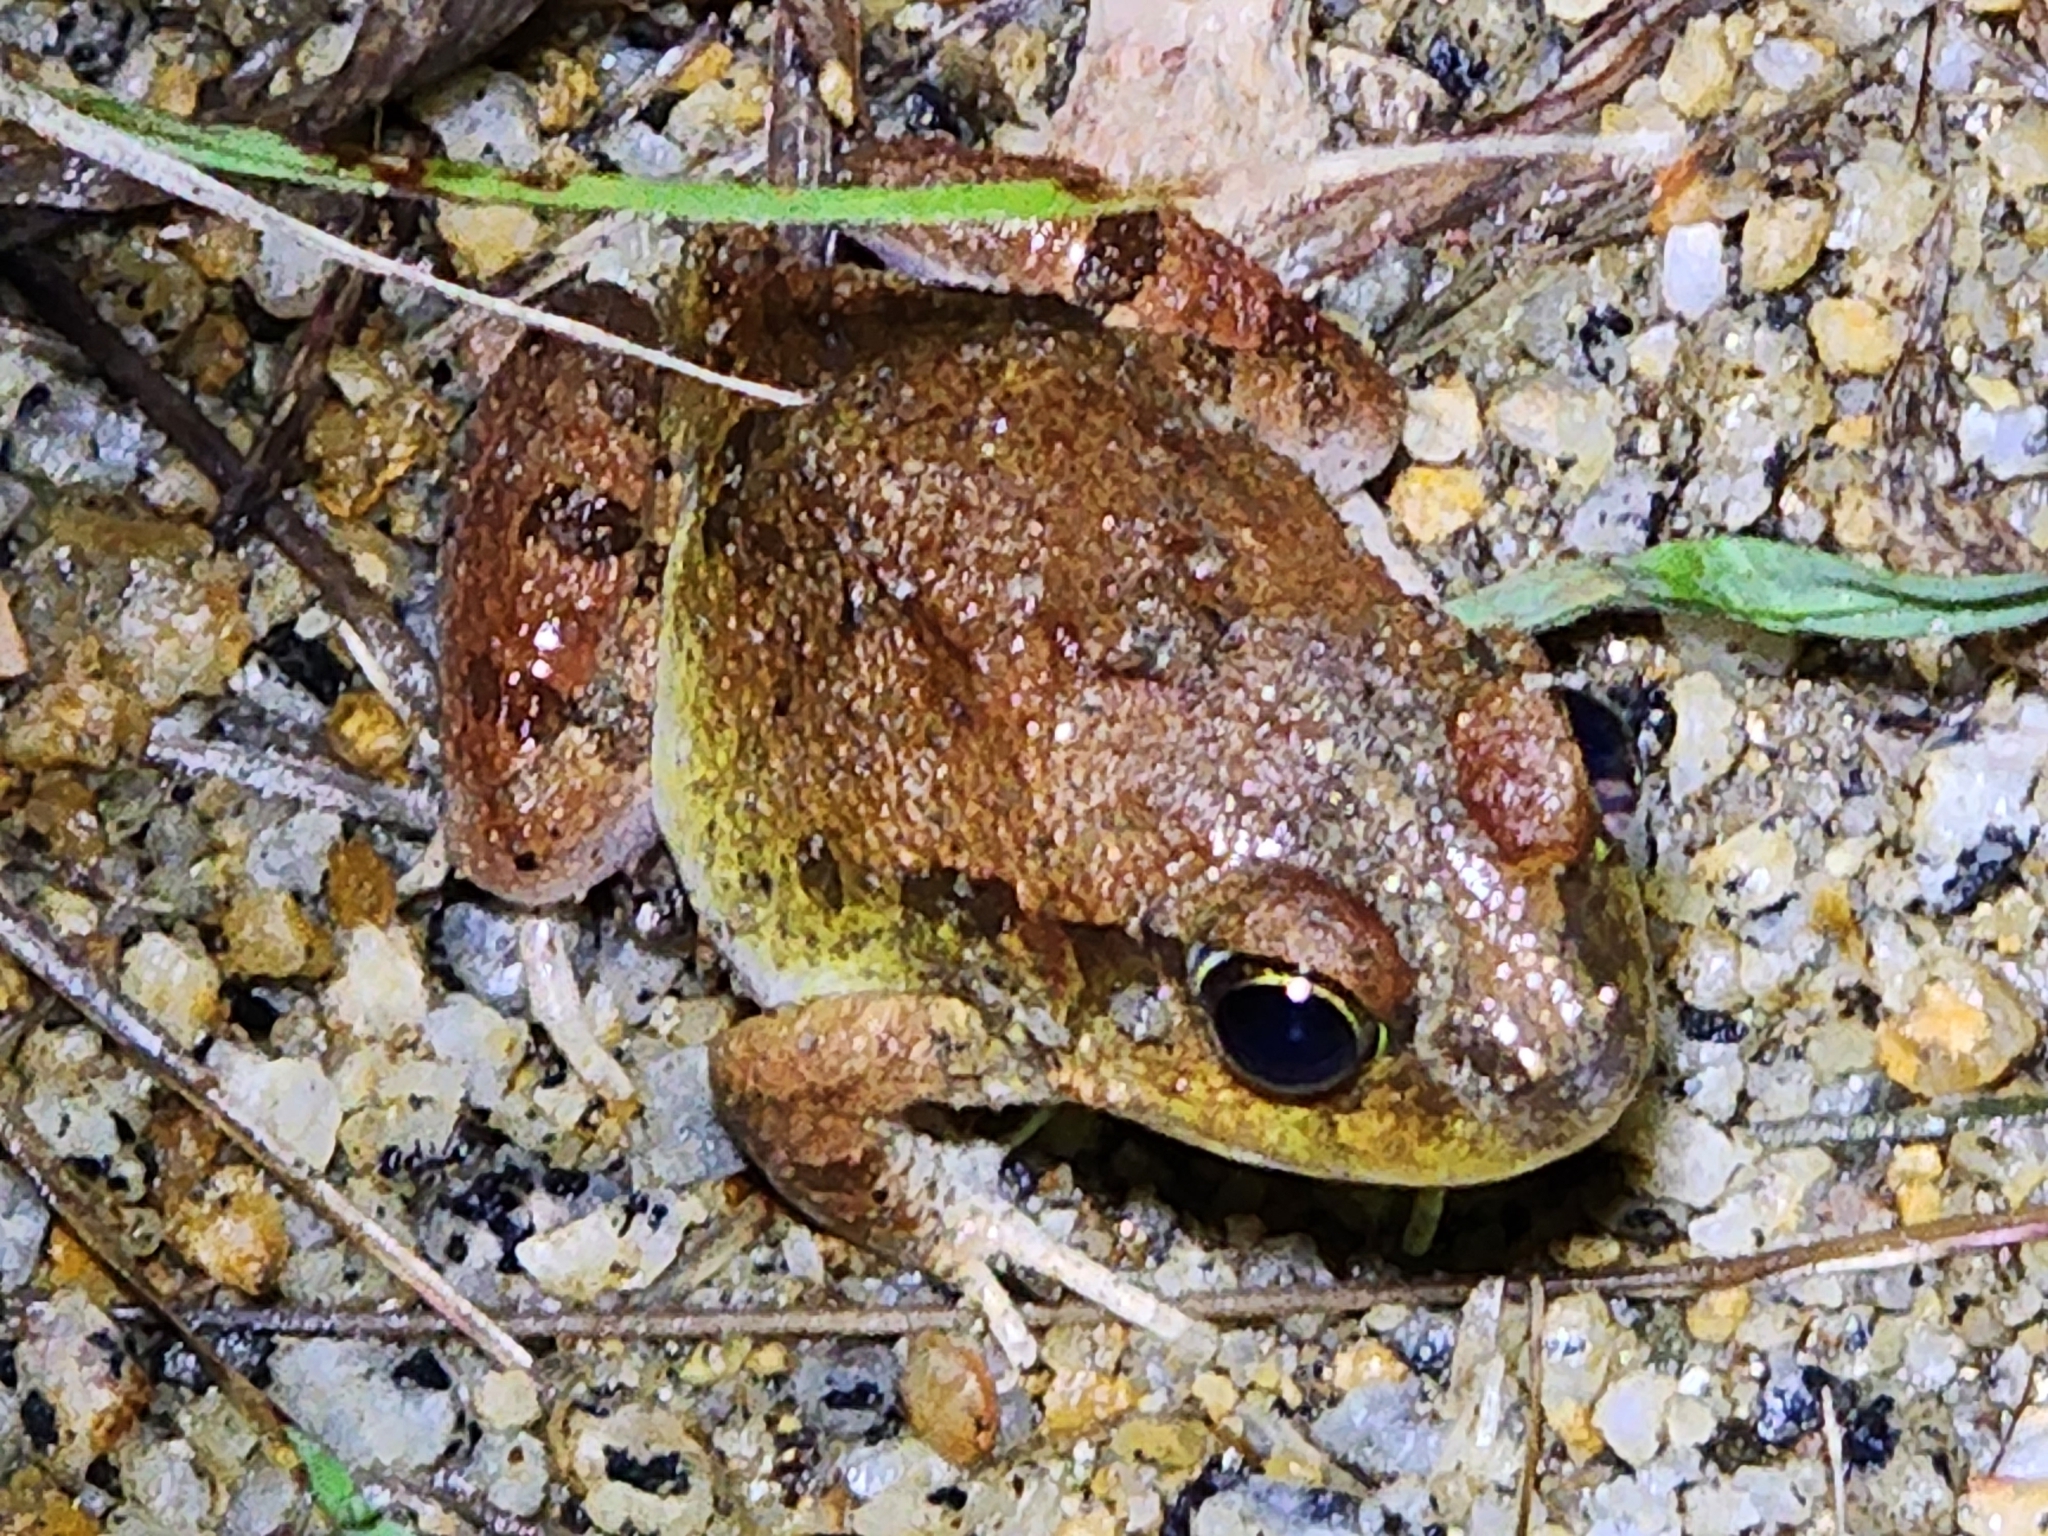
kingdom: Animalia
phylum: Chordata
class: Amphibia
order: Anura
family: Limnodynastidae
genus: Platyplectrum
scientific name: Platyplectrum ornatum
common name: Ornate burrowing frog
